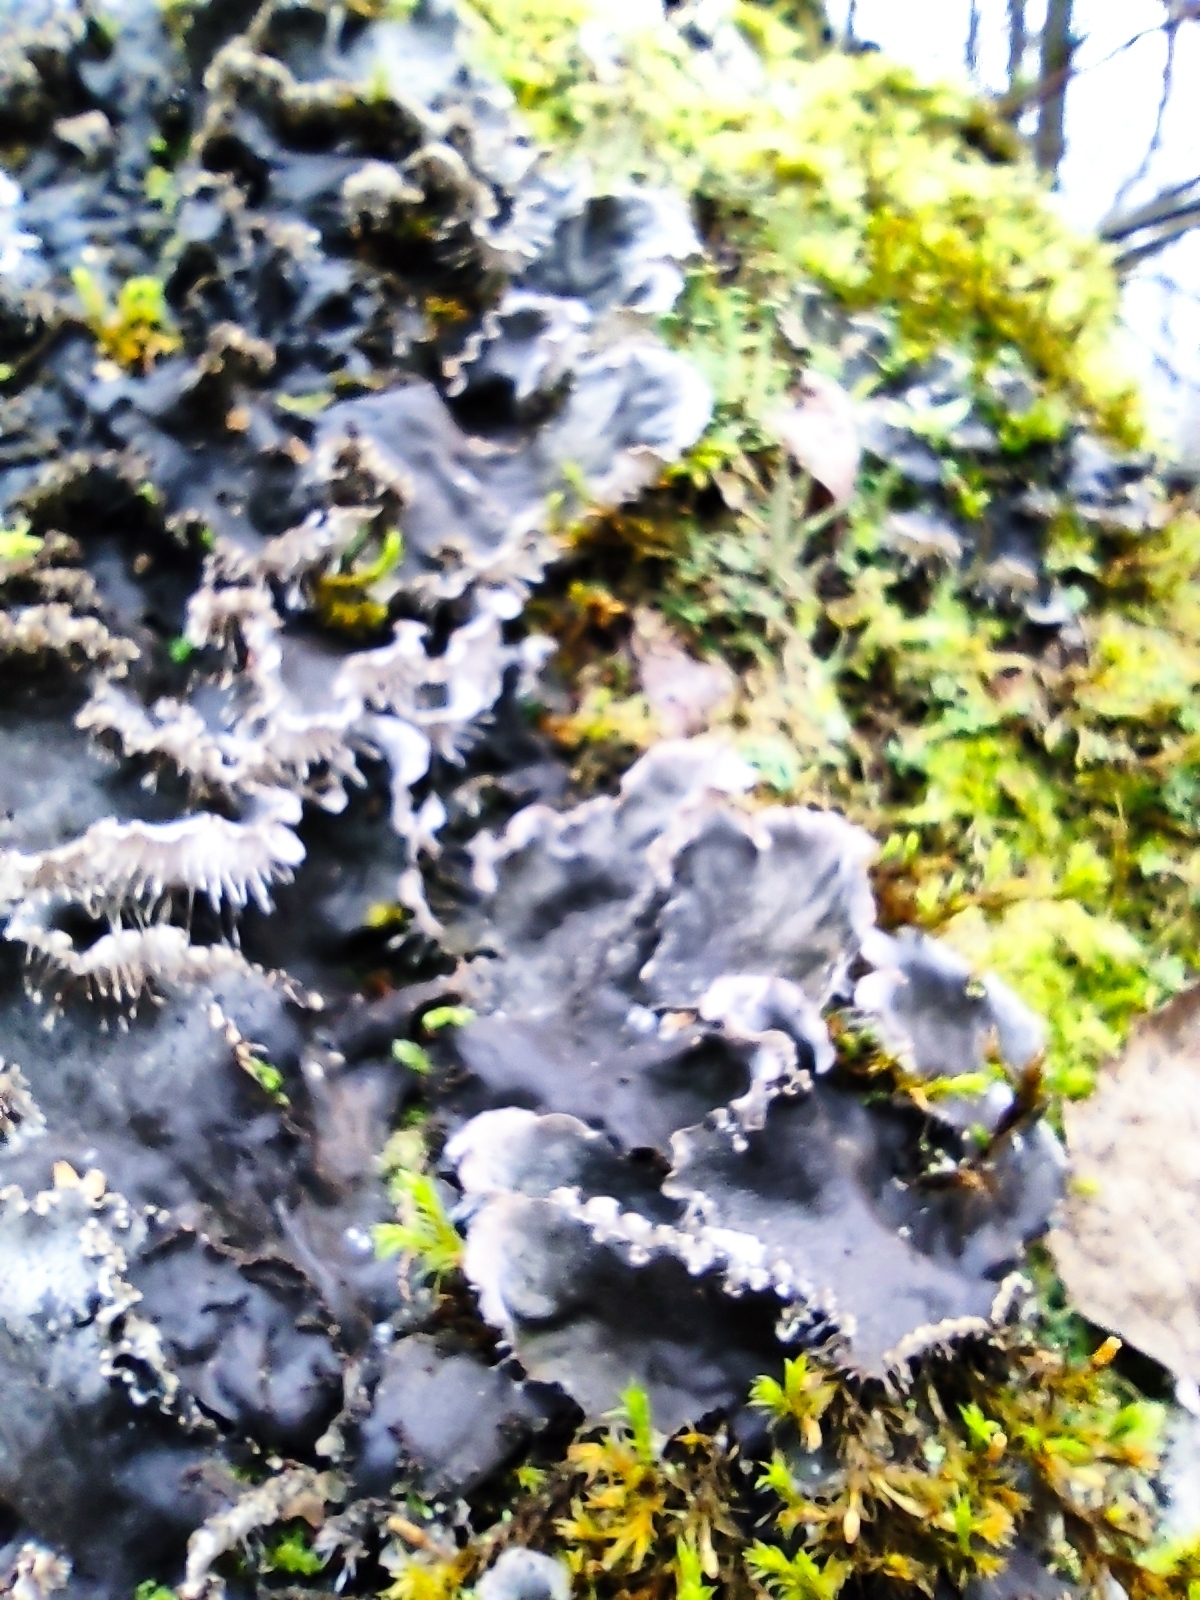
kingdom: Fungi
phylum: Ascomycota
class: Lecanoromycetes
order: Peltigerales
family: Peltigeraceae
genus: Peltigera
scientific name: Peltigera praetextata
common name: Scaly dog-lichen
